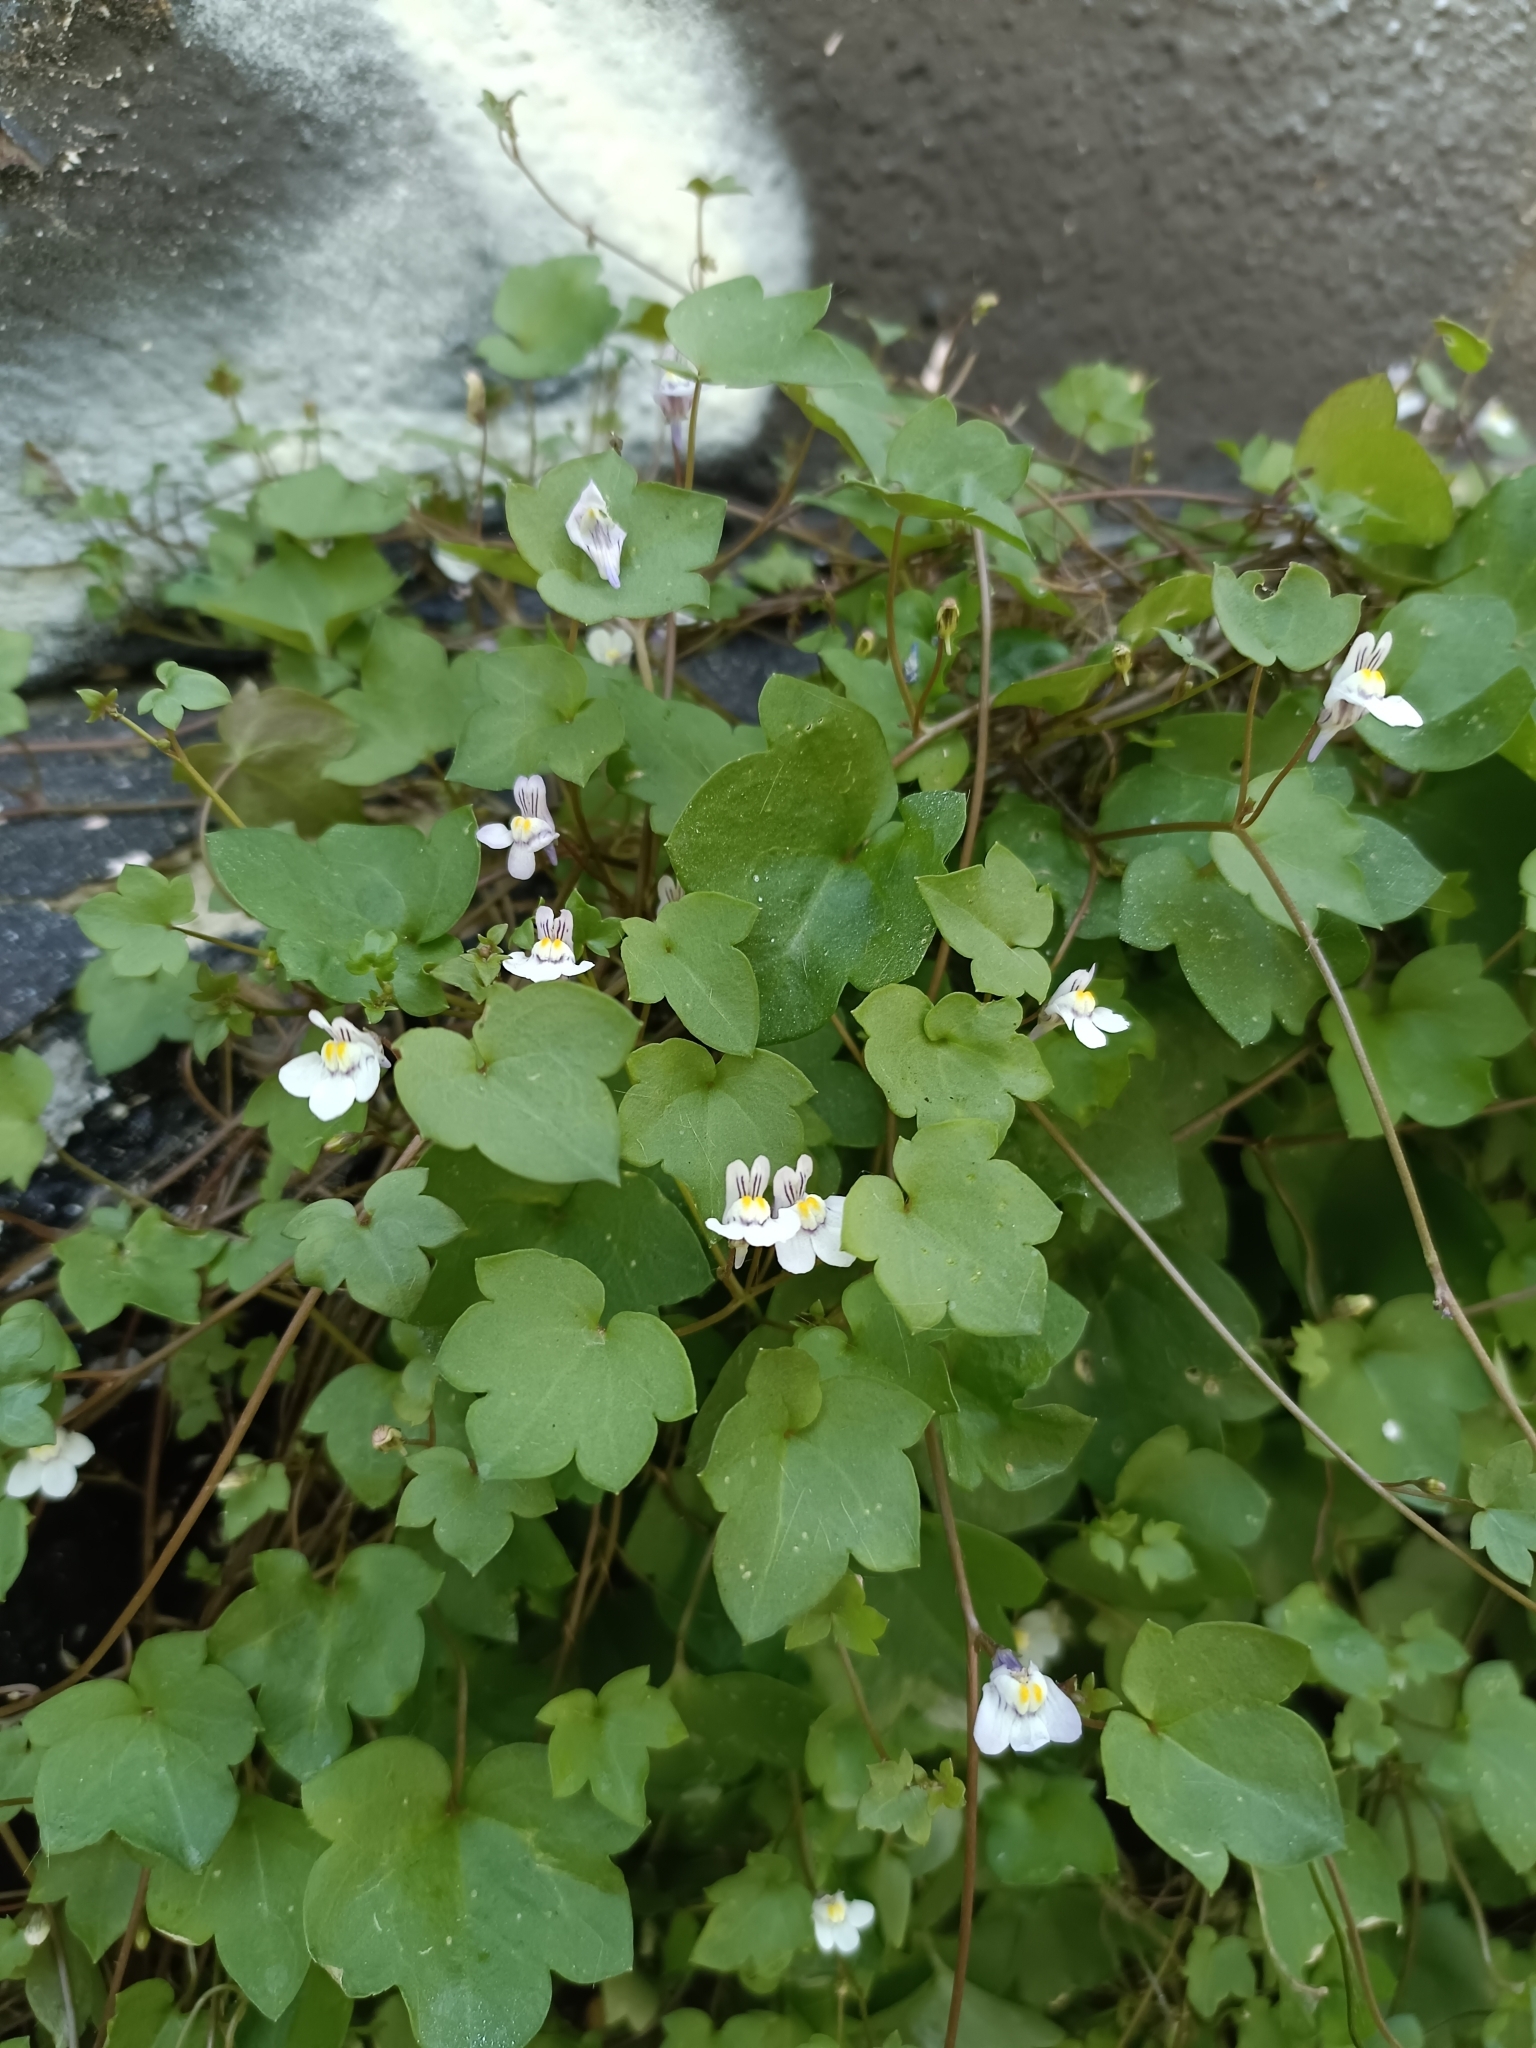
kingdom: Plantae
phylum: Tracheophyta
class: Magnoliopsida
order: Lamiales
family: Plantaginaceae
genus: Cymbalaria
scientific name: Cymbalaria muralis
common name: Ivy-leaved toadflax
